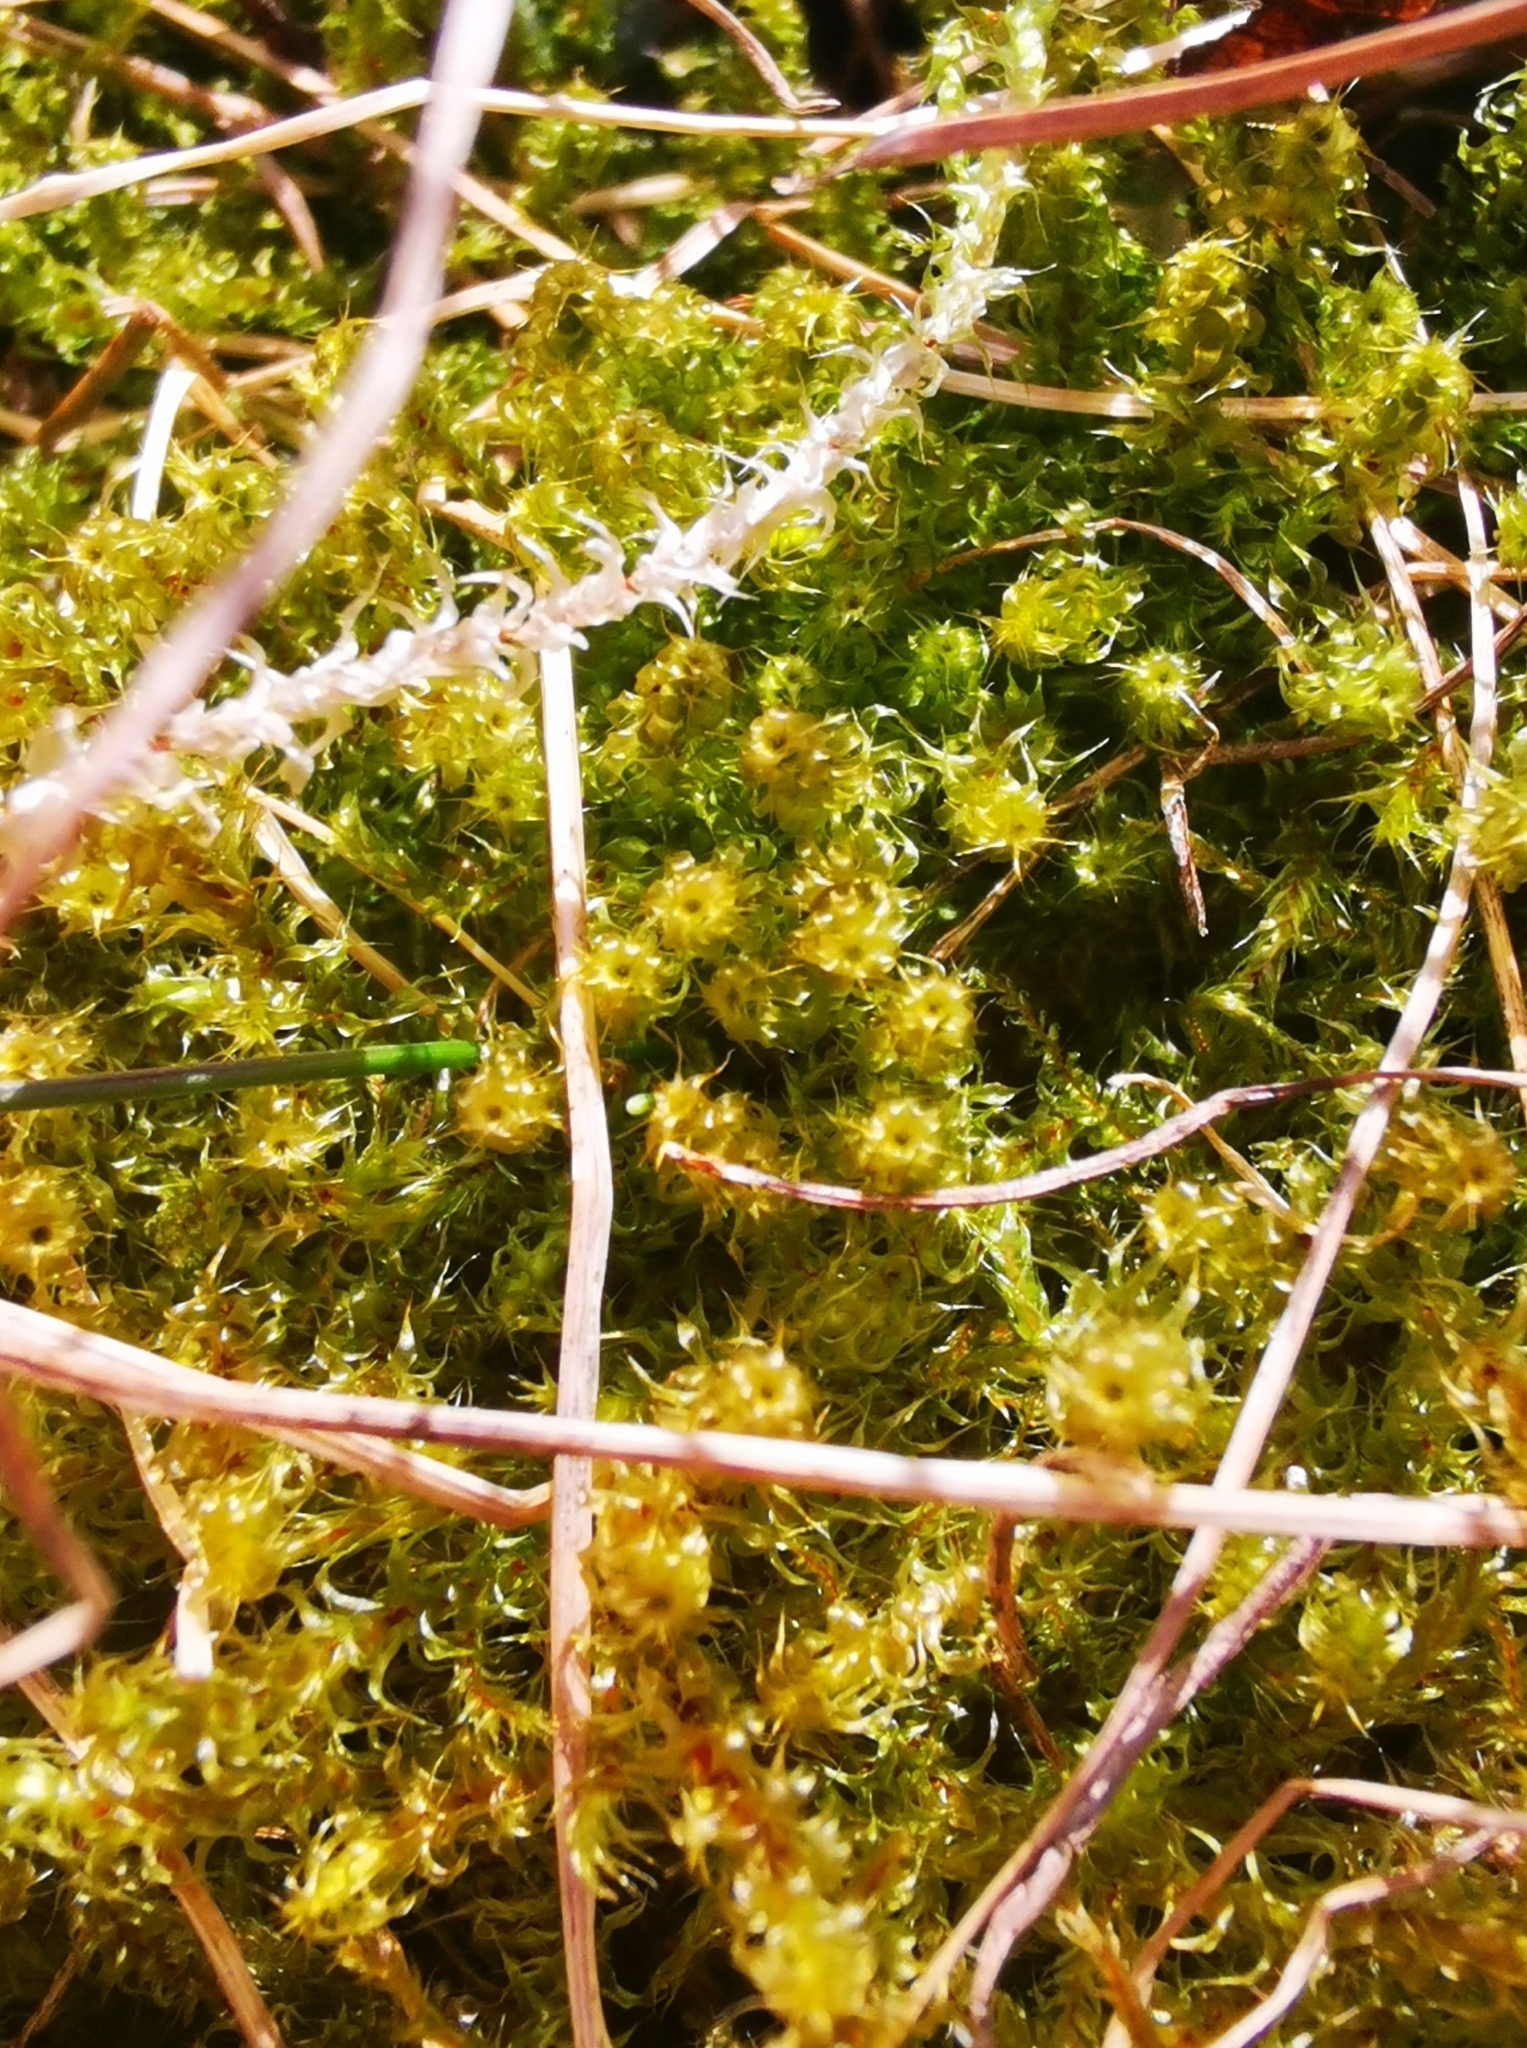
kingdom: Plantae
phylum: Bryophyta
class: Bryopsida
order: Hypnales
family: Hylocomiaceae
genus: Rhytidiadelphus
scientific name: Rhytidiadelphus squarrosus
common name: Springy turf-moss
